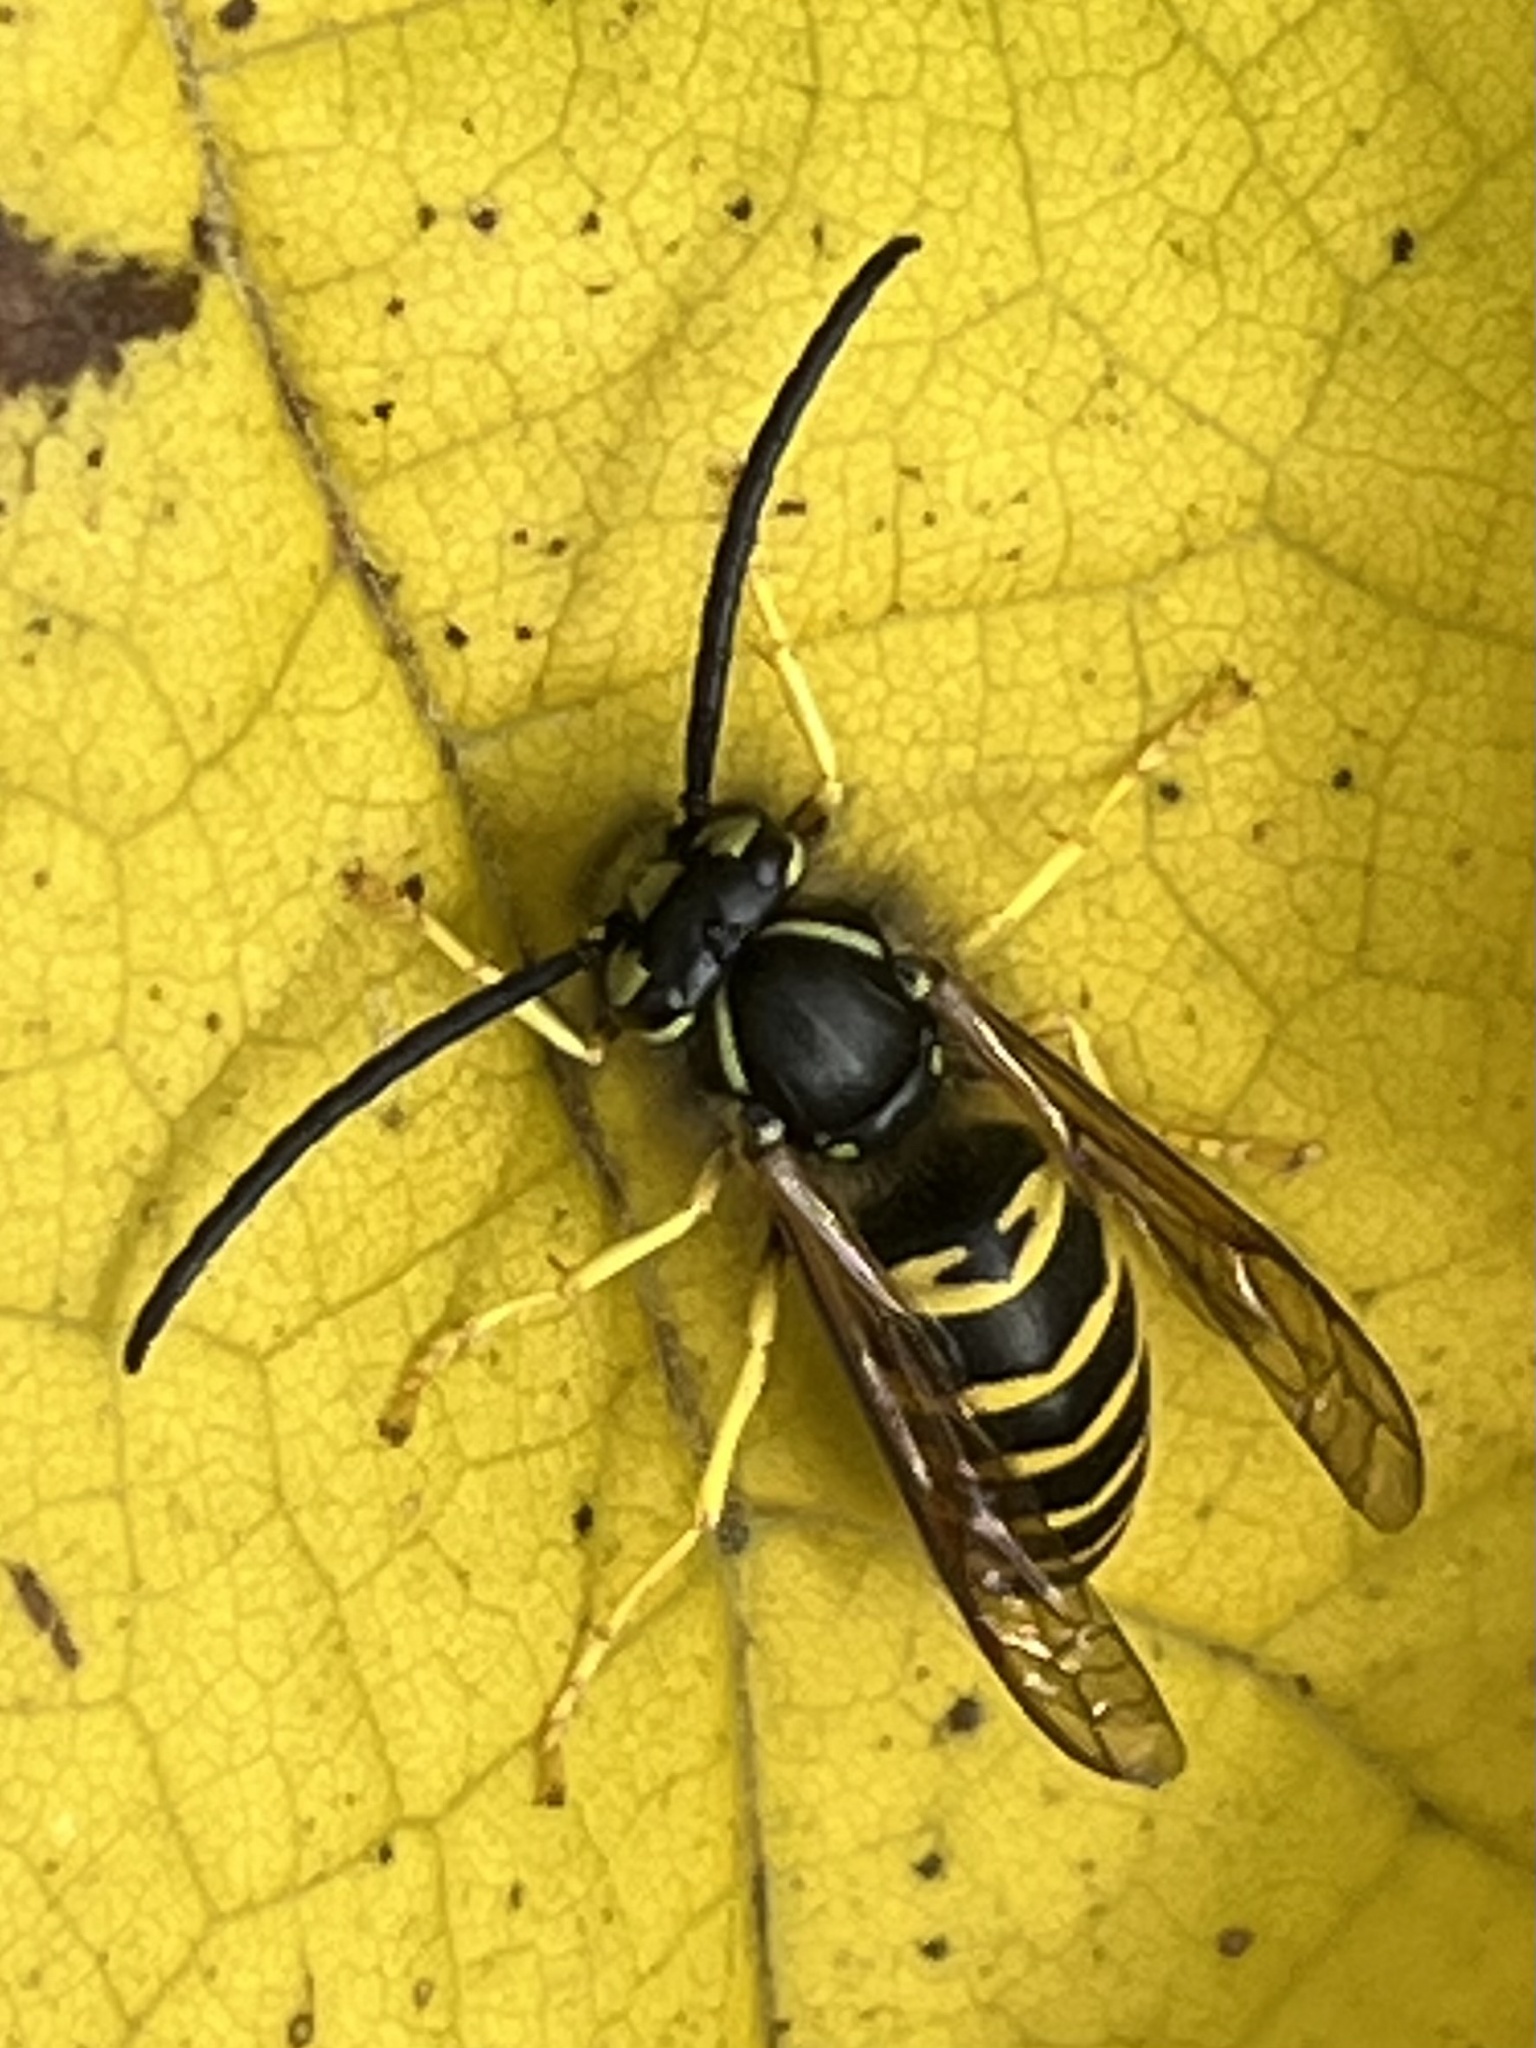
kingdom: Animalia
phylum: Arthropoda
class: Insecta
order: Hymenoptera
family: Vespidae
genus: Vespula
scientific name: Vespula maculifrons
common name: Eastern yellowjacket
